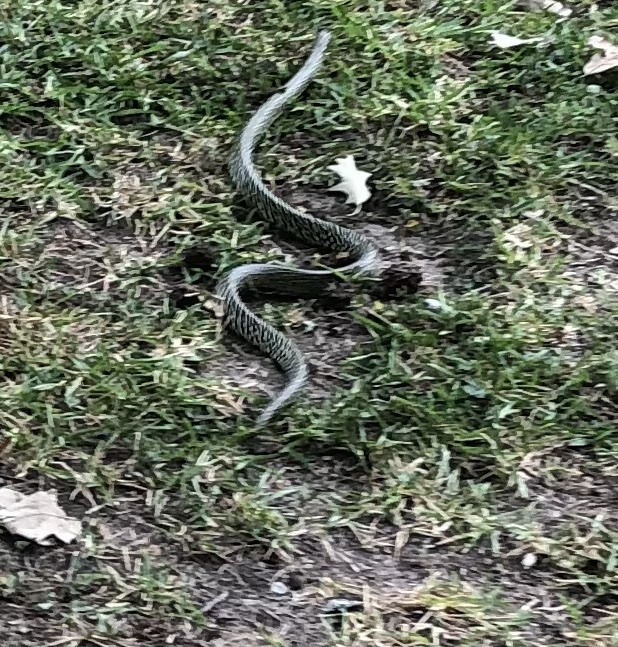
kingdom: Animalia
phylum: Chordata
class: Squamata
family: Colubridae
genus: Lampropeltis
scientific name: Lampropeltis holbrooki
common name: Speckled kingsnake
